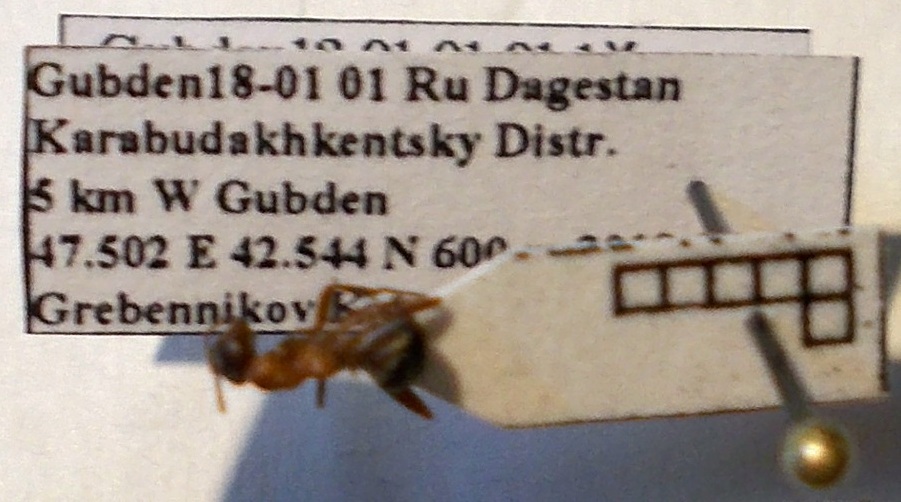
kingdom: Animalia
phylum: Arthropoda
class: Insecta
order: Hymenoptera
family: Formicidae
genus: Formica
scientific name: Formica cunicularia
